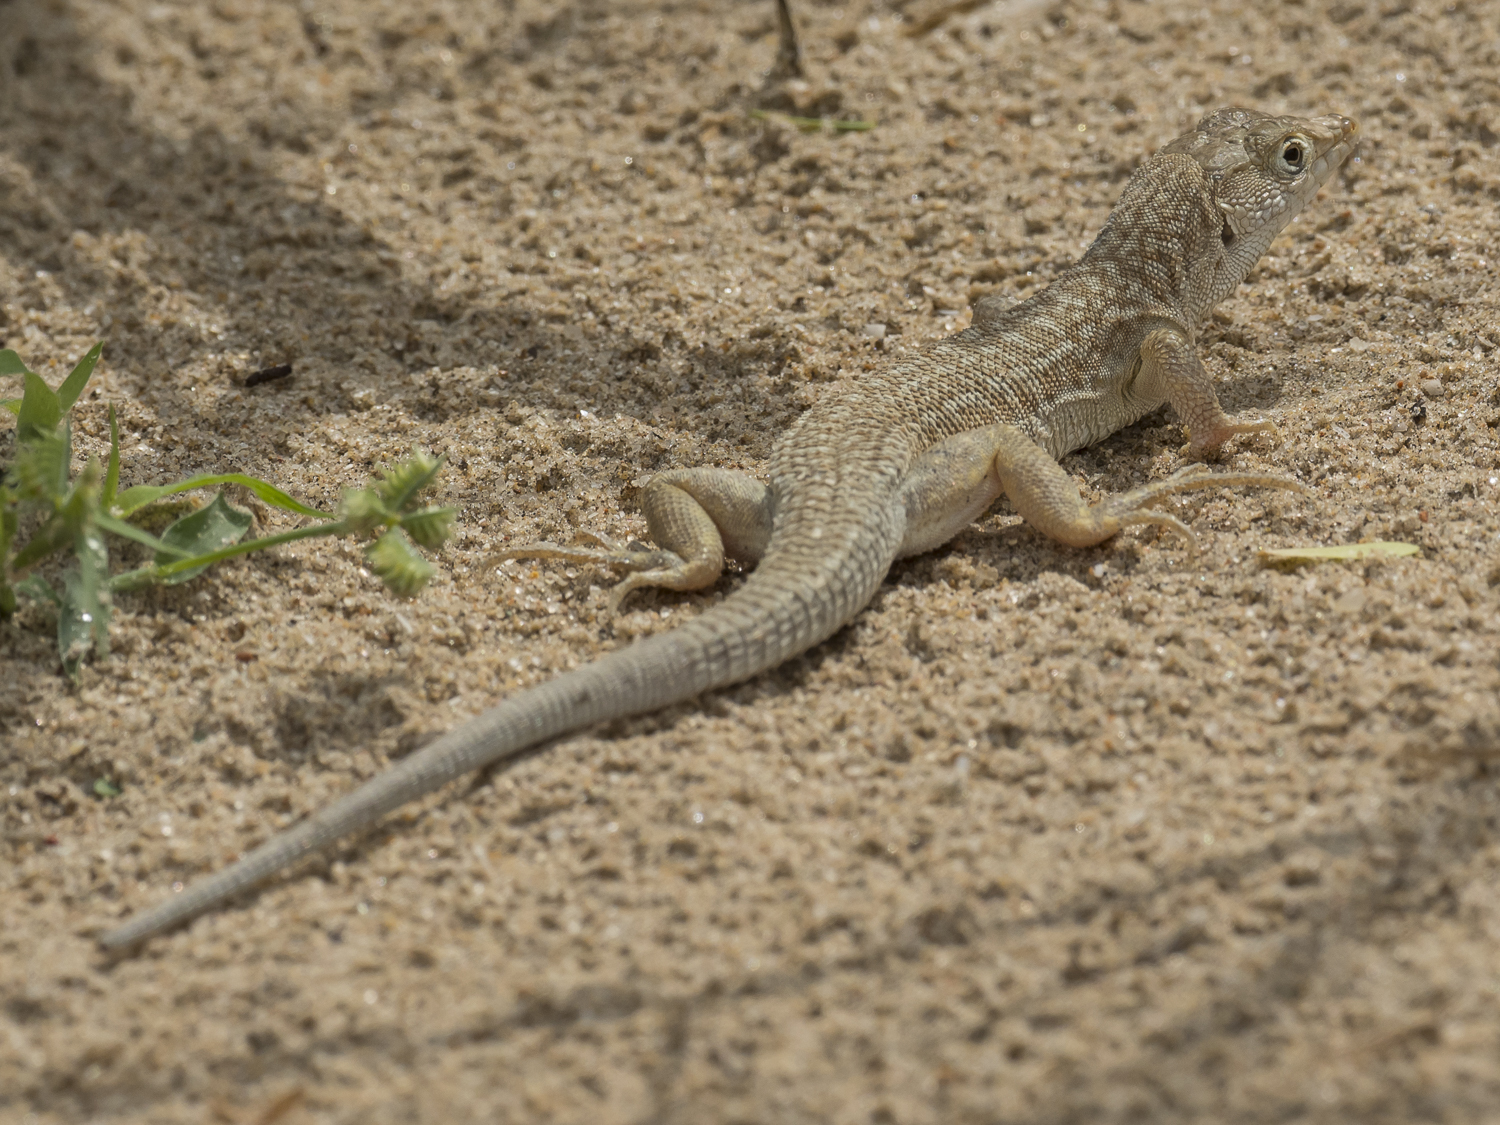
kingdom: Animalia
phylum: Chordata
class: Squamata
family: Lacertidae
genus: Acanthodactylus
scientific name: Acanthodactylus cantoris
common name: Indian fringe-fingered lizard
